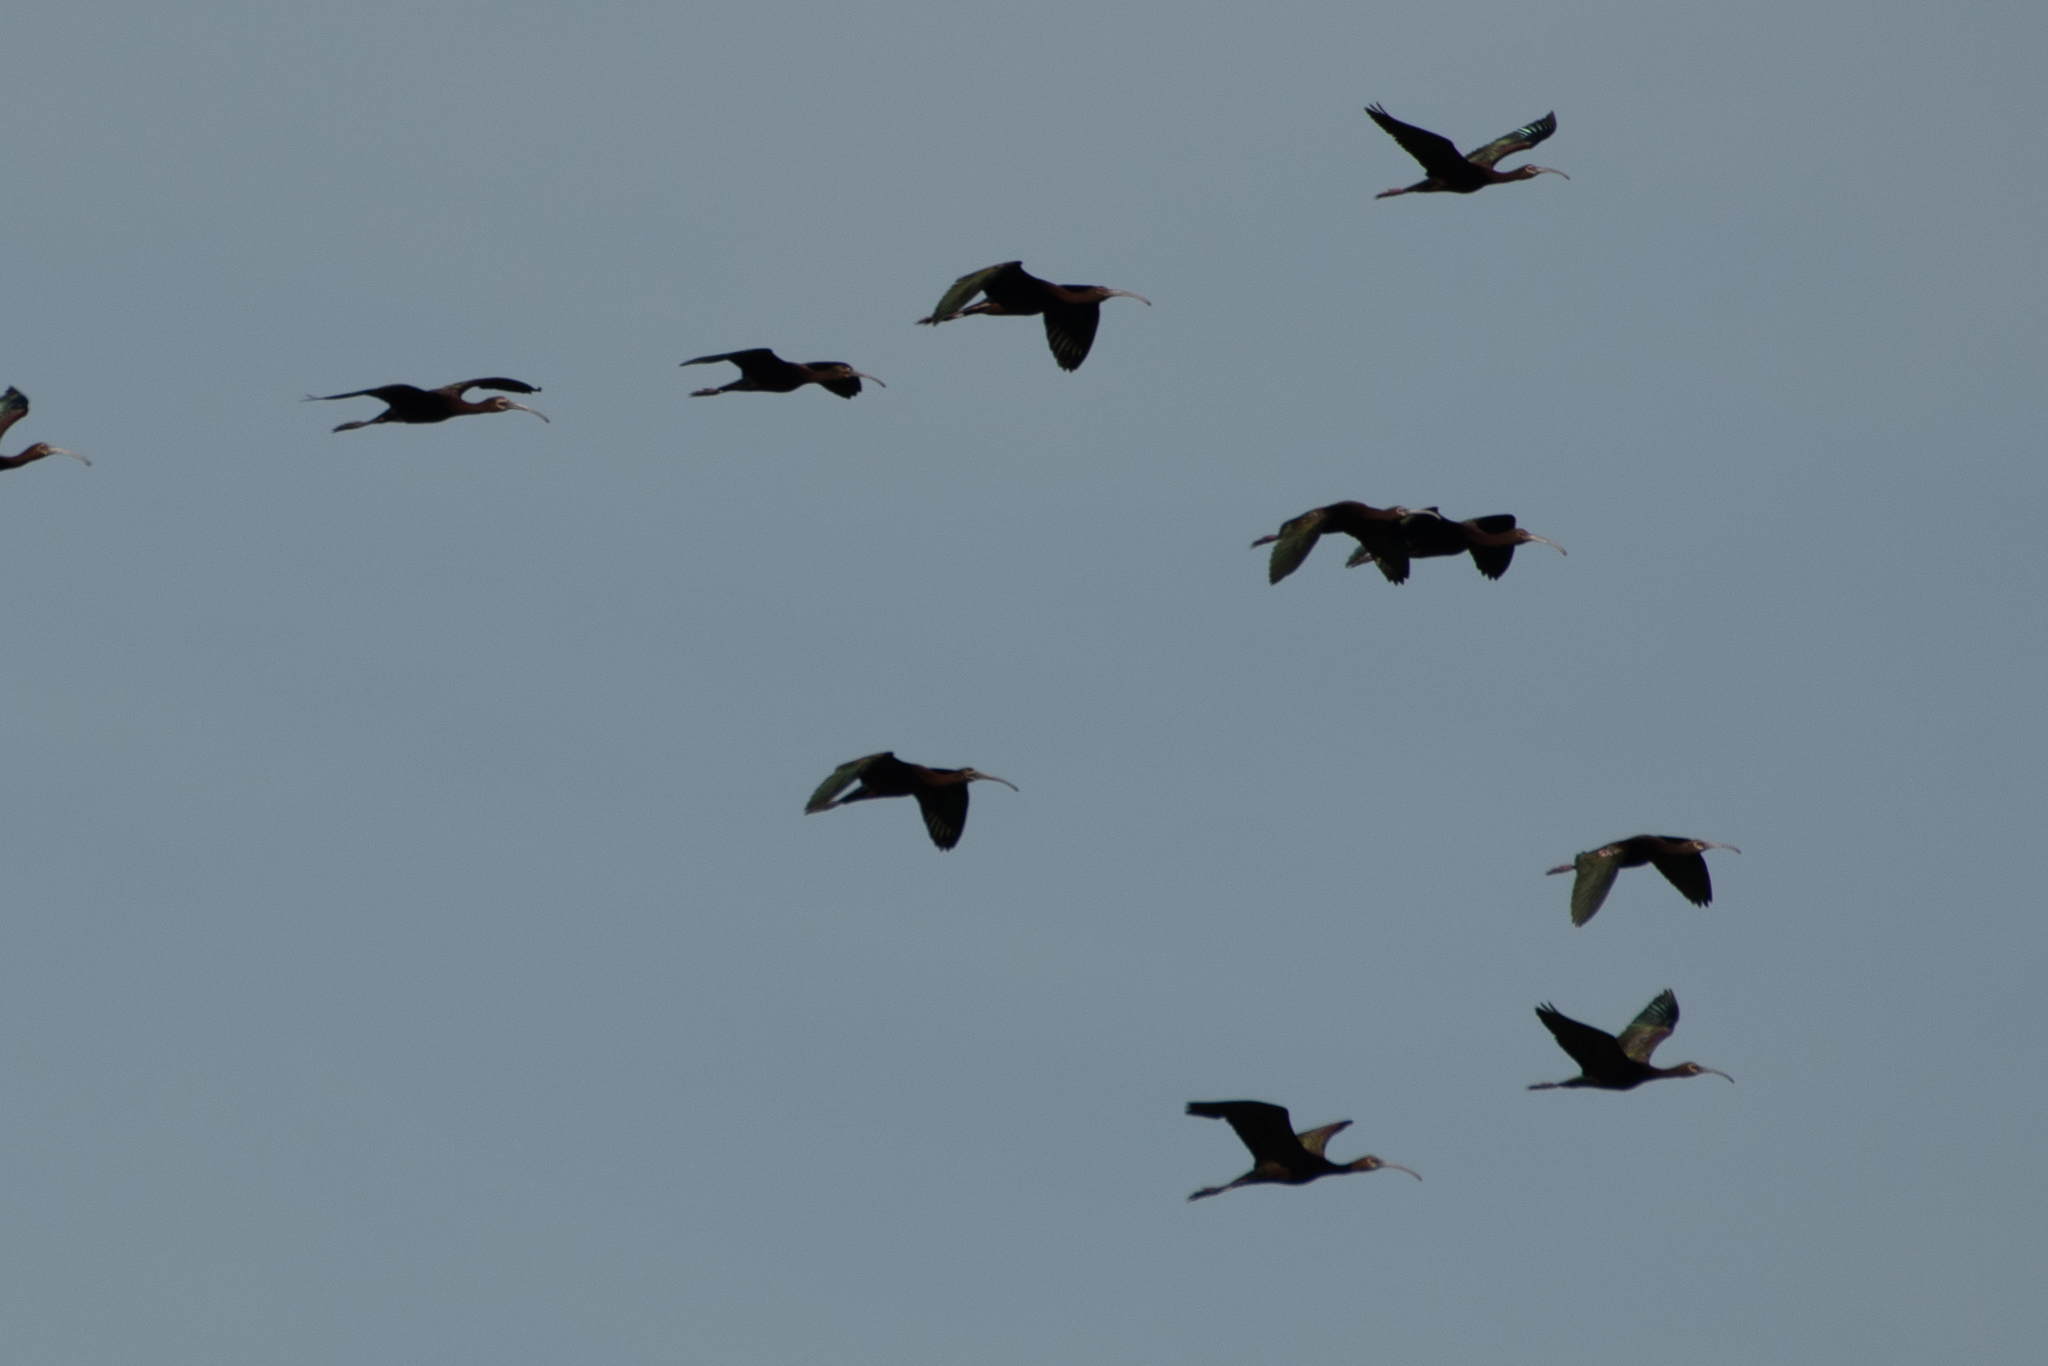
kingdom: Animalia
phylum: Chordata
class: Aves
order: Pelecaniformes
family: Threskiornithidae
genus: Plegadis
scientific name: Plegadis chihi
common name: White-faced ibis
